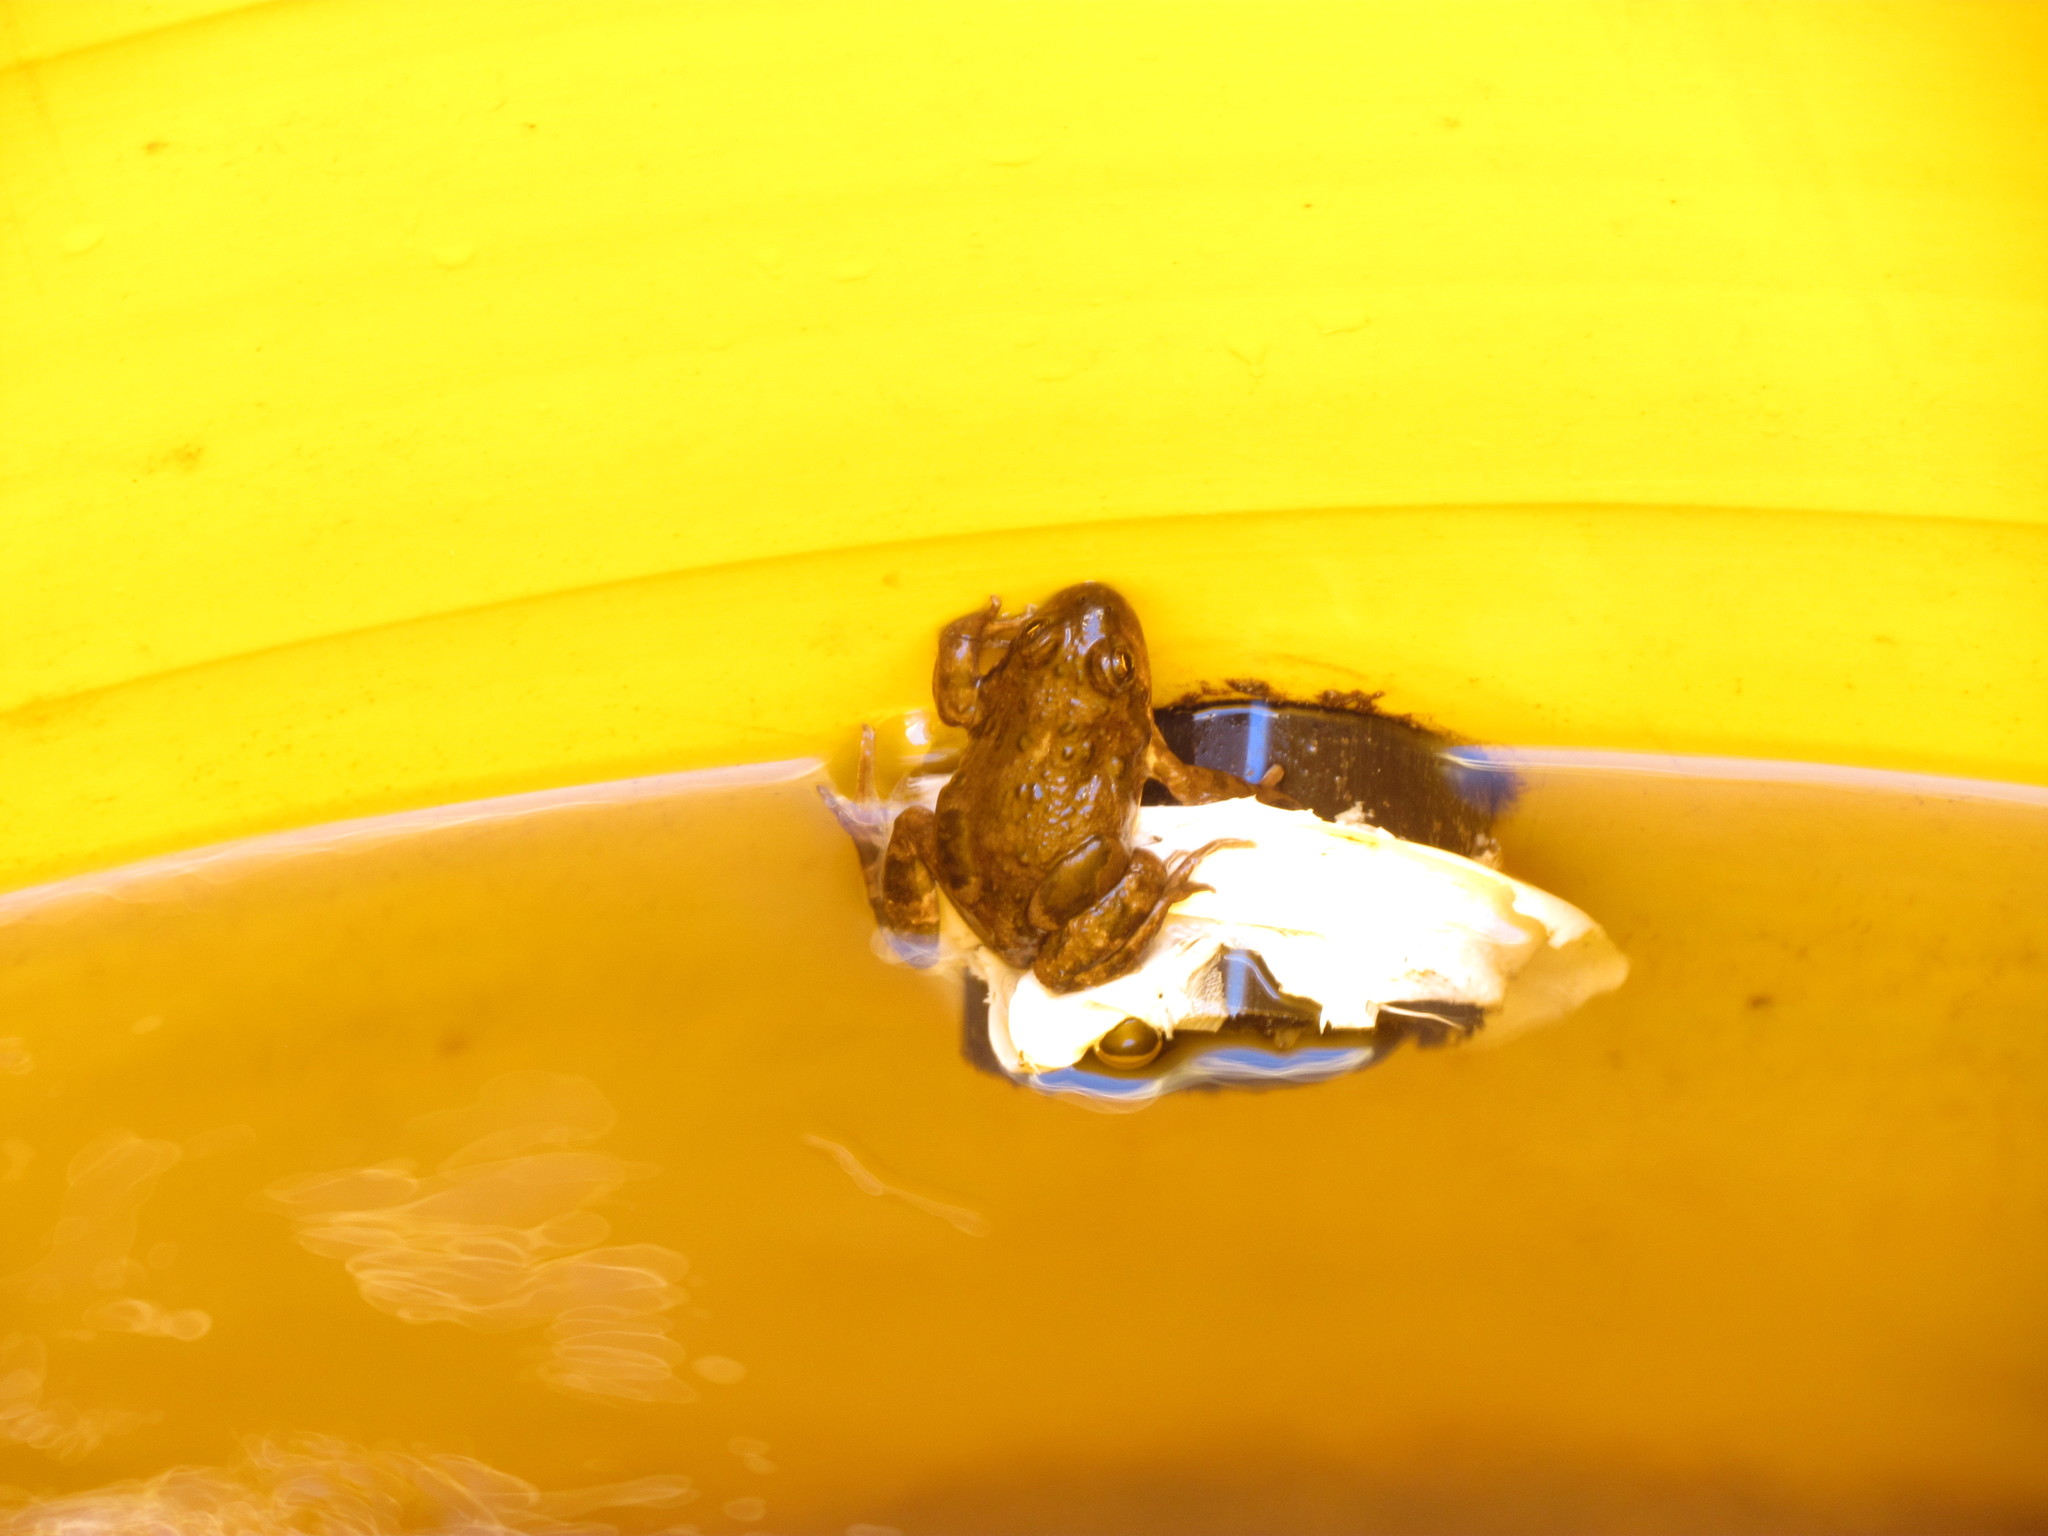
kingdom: Animalia
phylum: Chordata
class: Amphibia
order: Anura
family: Leptodactylidae
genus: Pleurodema
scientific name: Pleurodema bufoninum
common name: Large four-eyed frog
